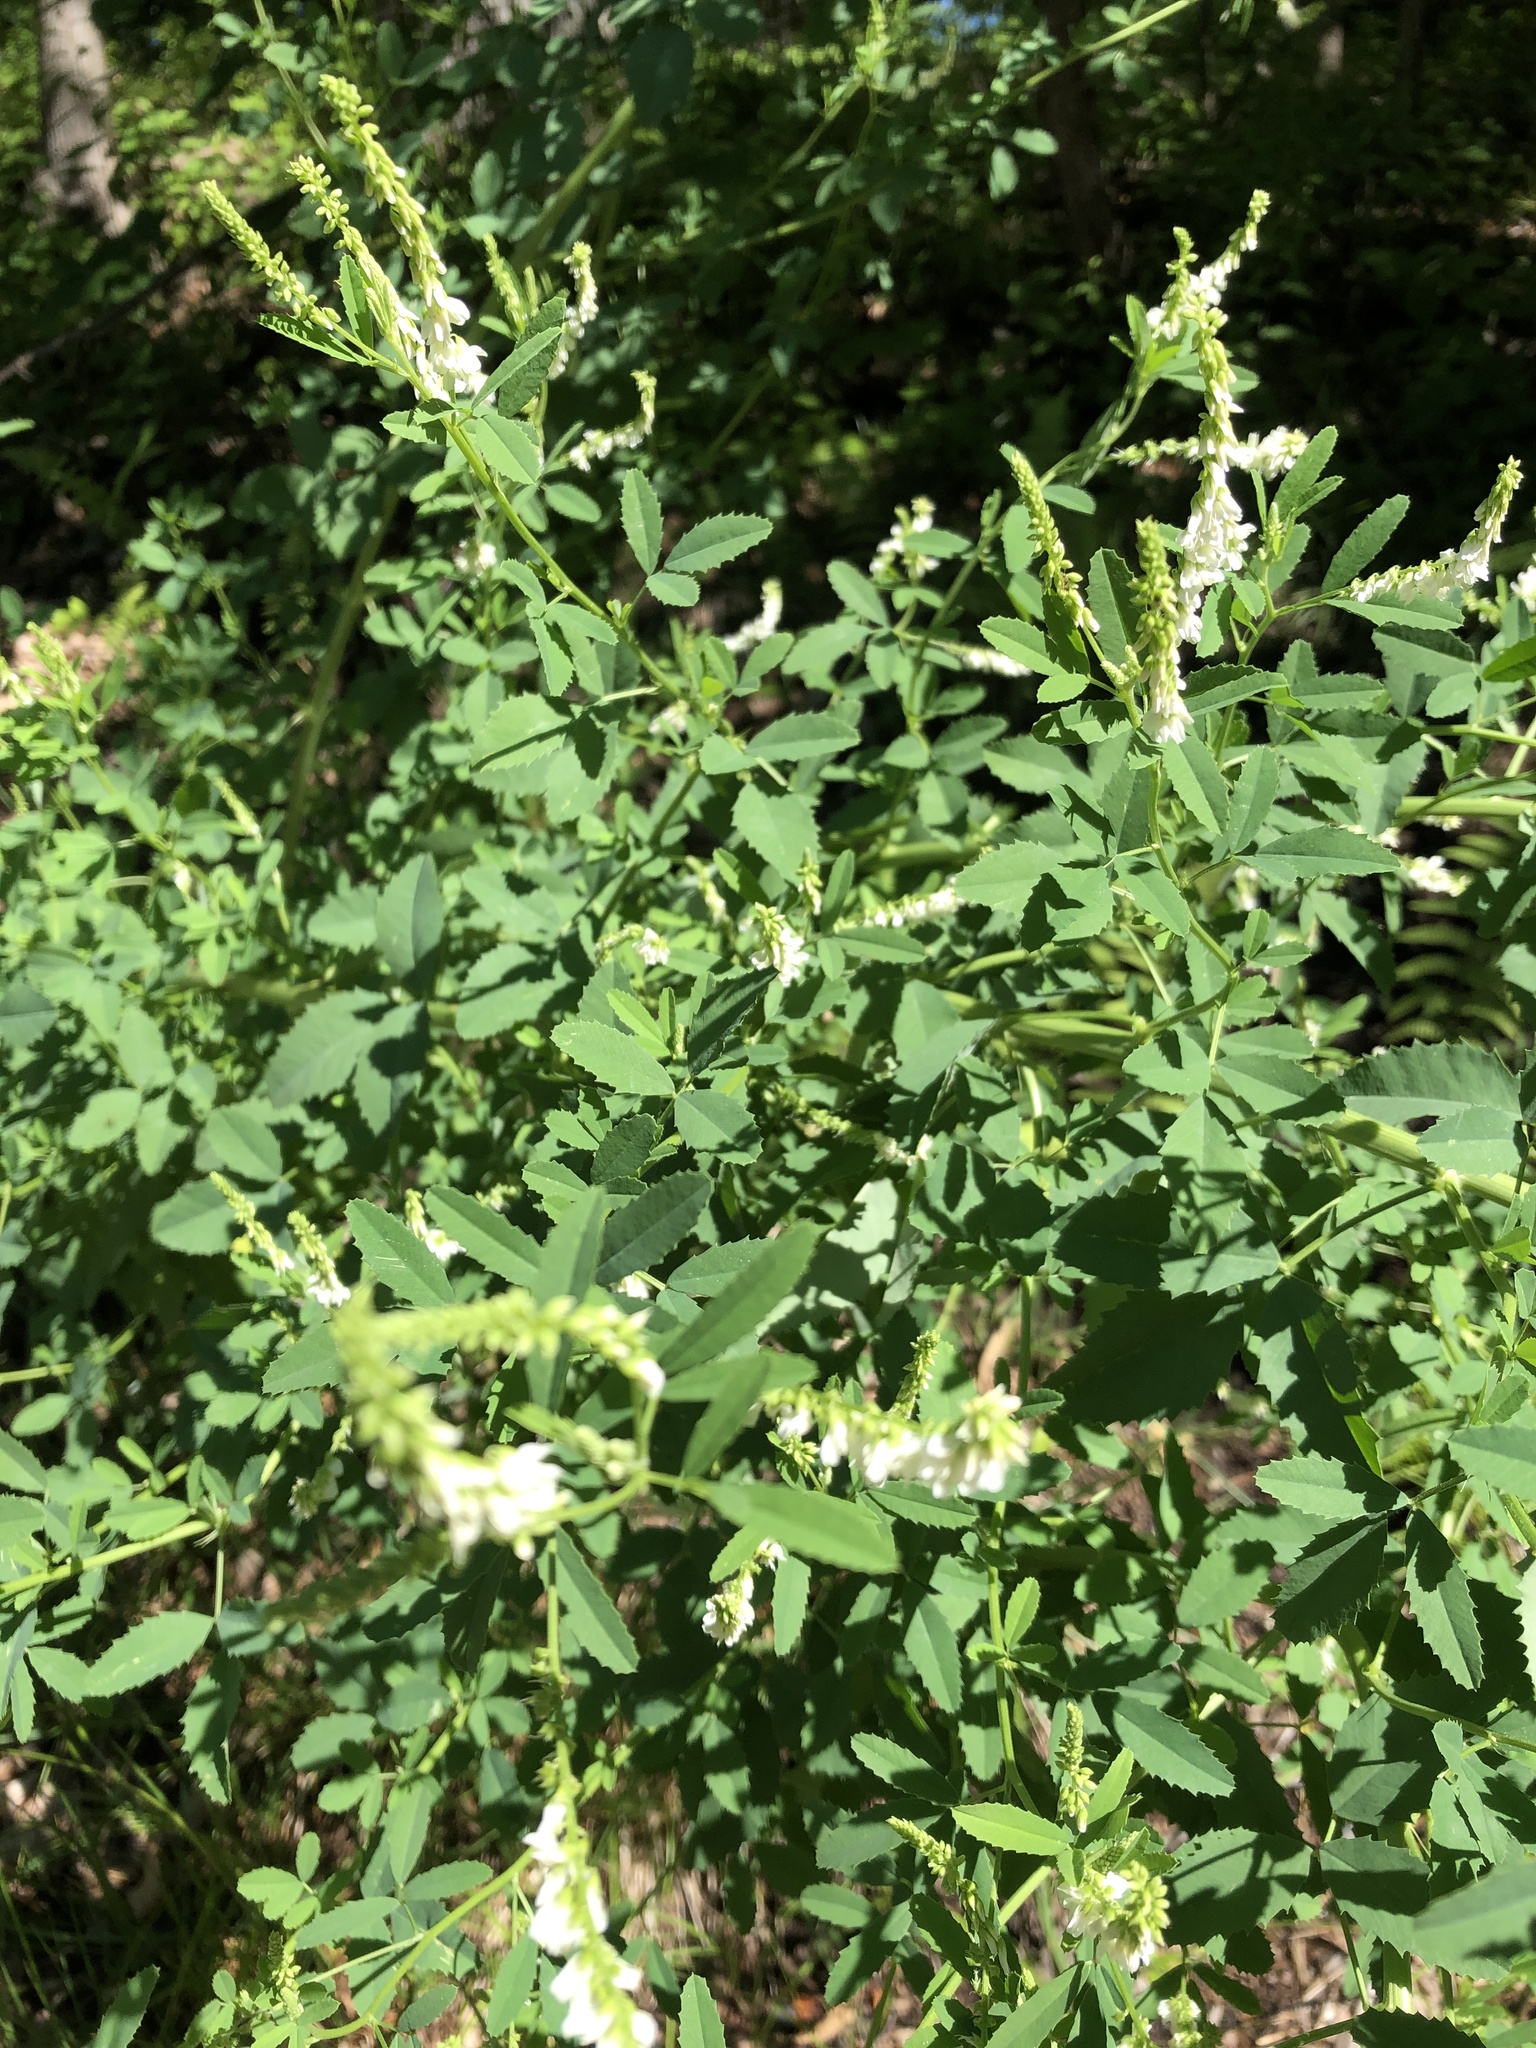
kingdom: Plantae
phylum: Tracheophyta
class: Magnoliopsida
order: Fabales
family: Fabaceae
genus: Melilotus
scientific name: Melilotus albus
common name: White melilot
